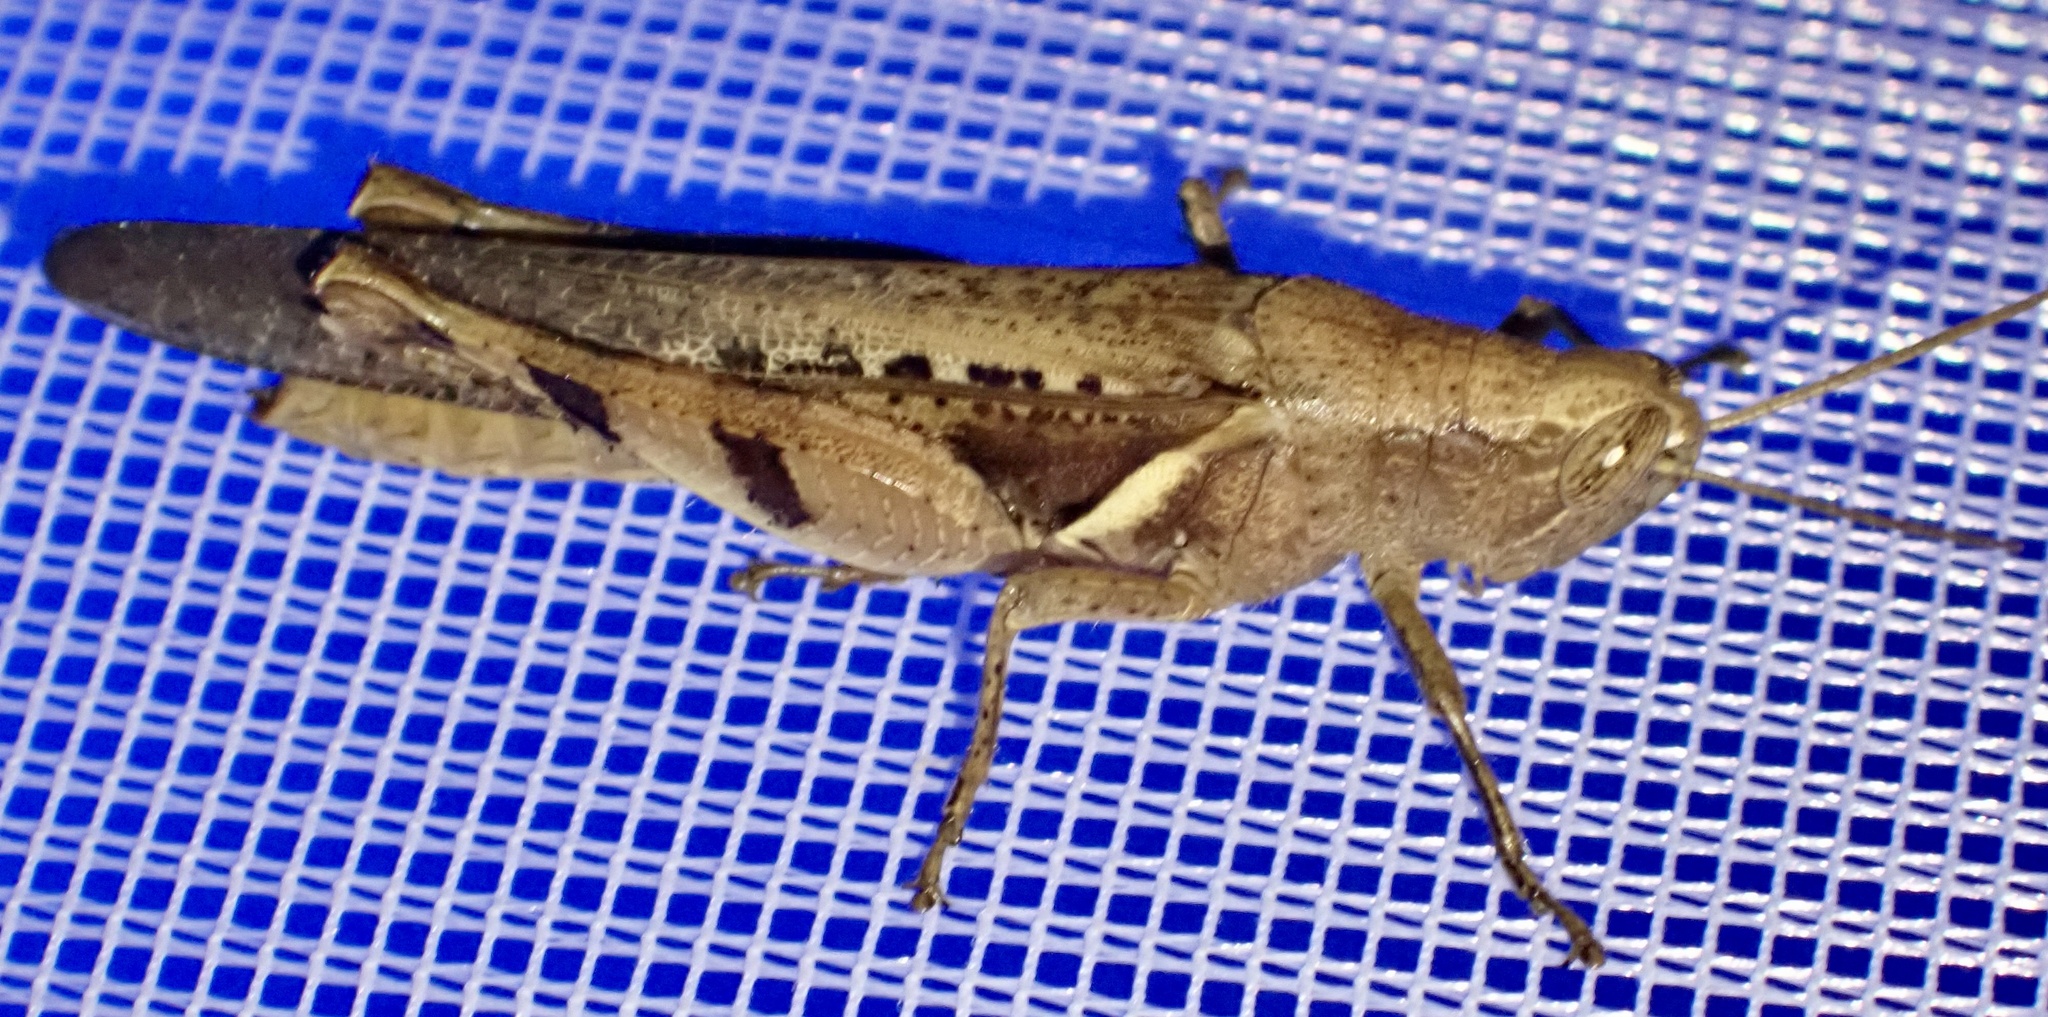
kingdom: Animalia
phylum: Arthropoda
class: Insecta
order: Orthoptera
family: Acrididae
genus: Stenocatantops
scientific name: Stenocatantops angustifrons
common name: Common tropical sharptail
